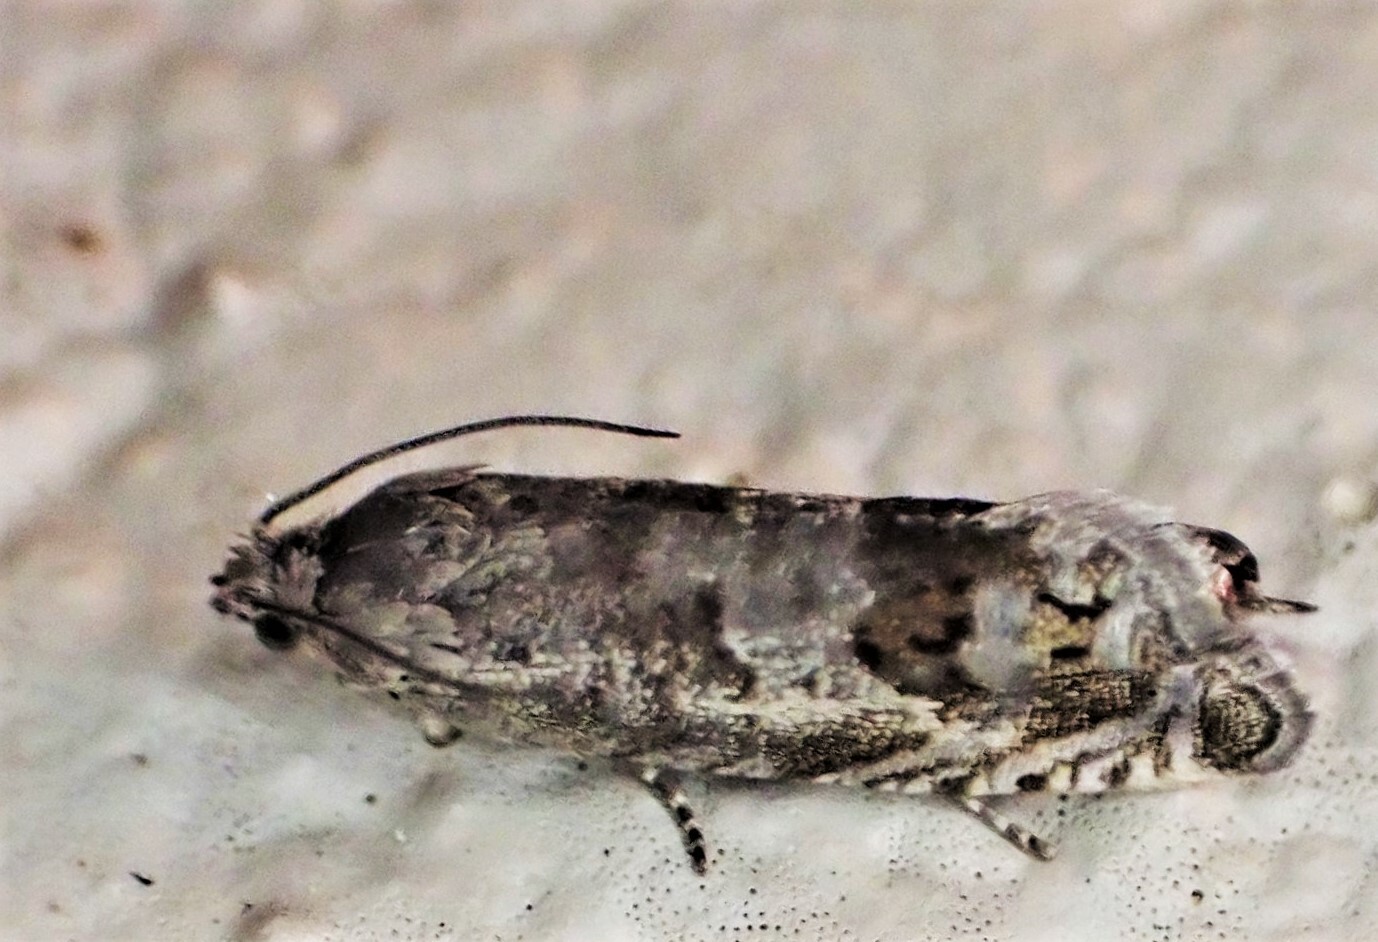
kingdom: Animalia
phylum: Arthropoda
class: Insecta
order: Lepidoptera
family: Tortricidae
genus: Cydia
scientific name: Cydia succedana
